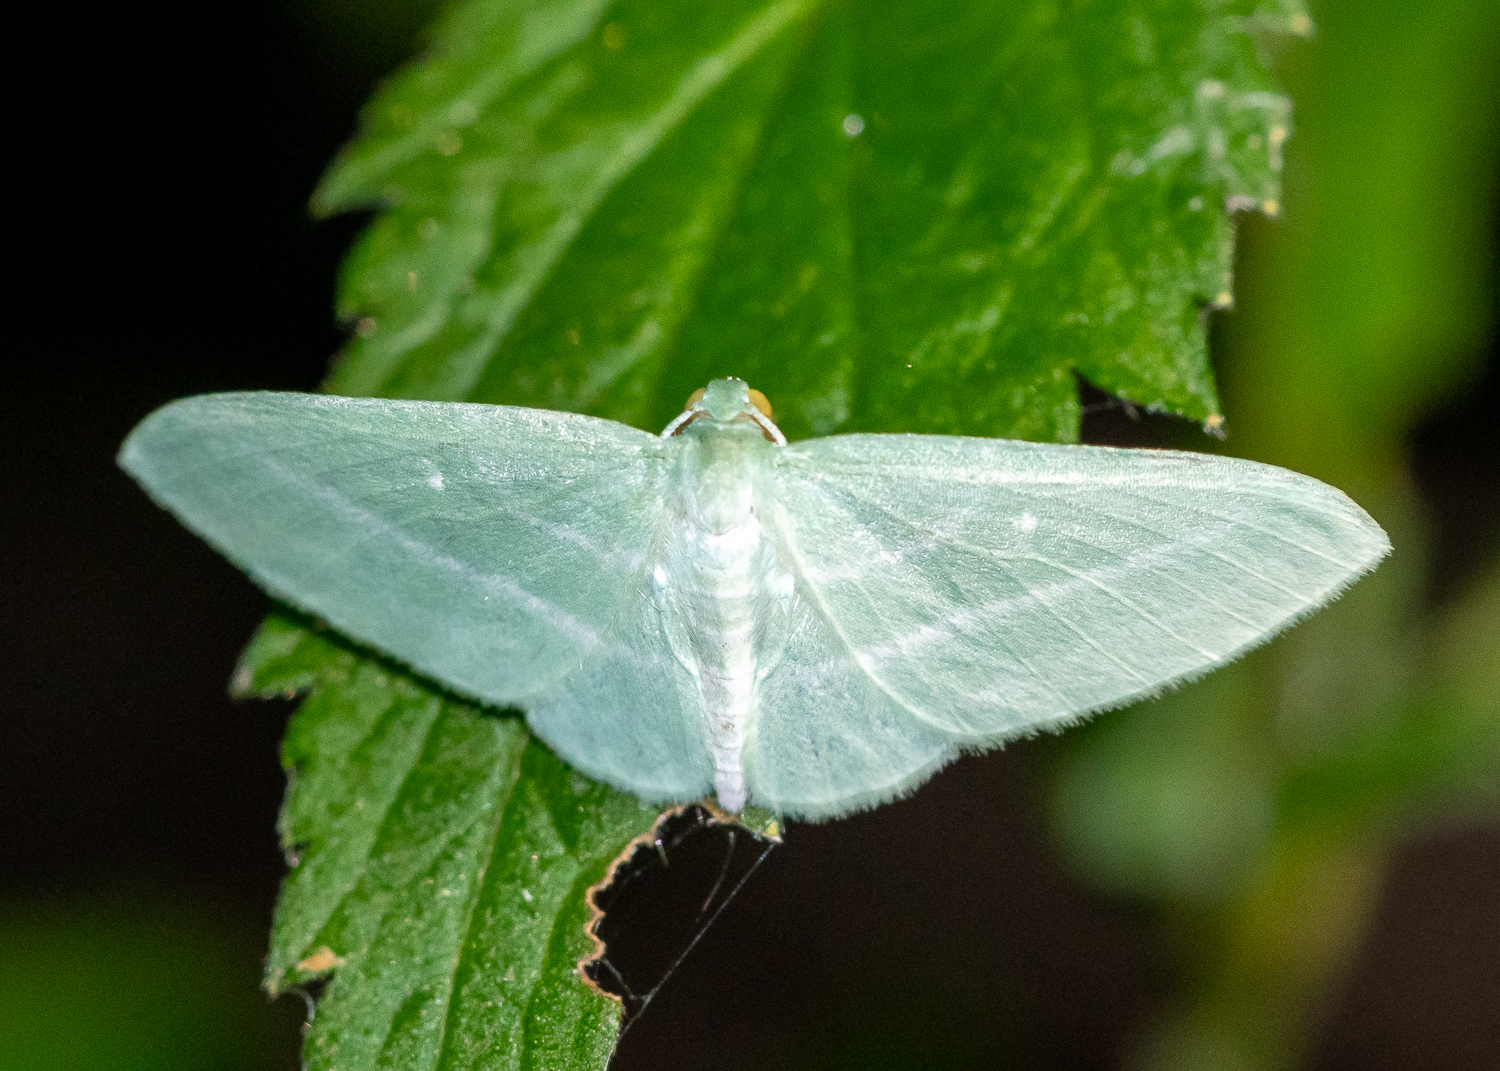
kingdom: Animalia
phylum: Arthropoda
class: Insecta
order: Lepidoptera
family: Geometridae
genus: Dyspteris
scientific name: Dyspteris abortivaria
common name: Bad-wing
